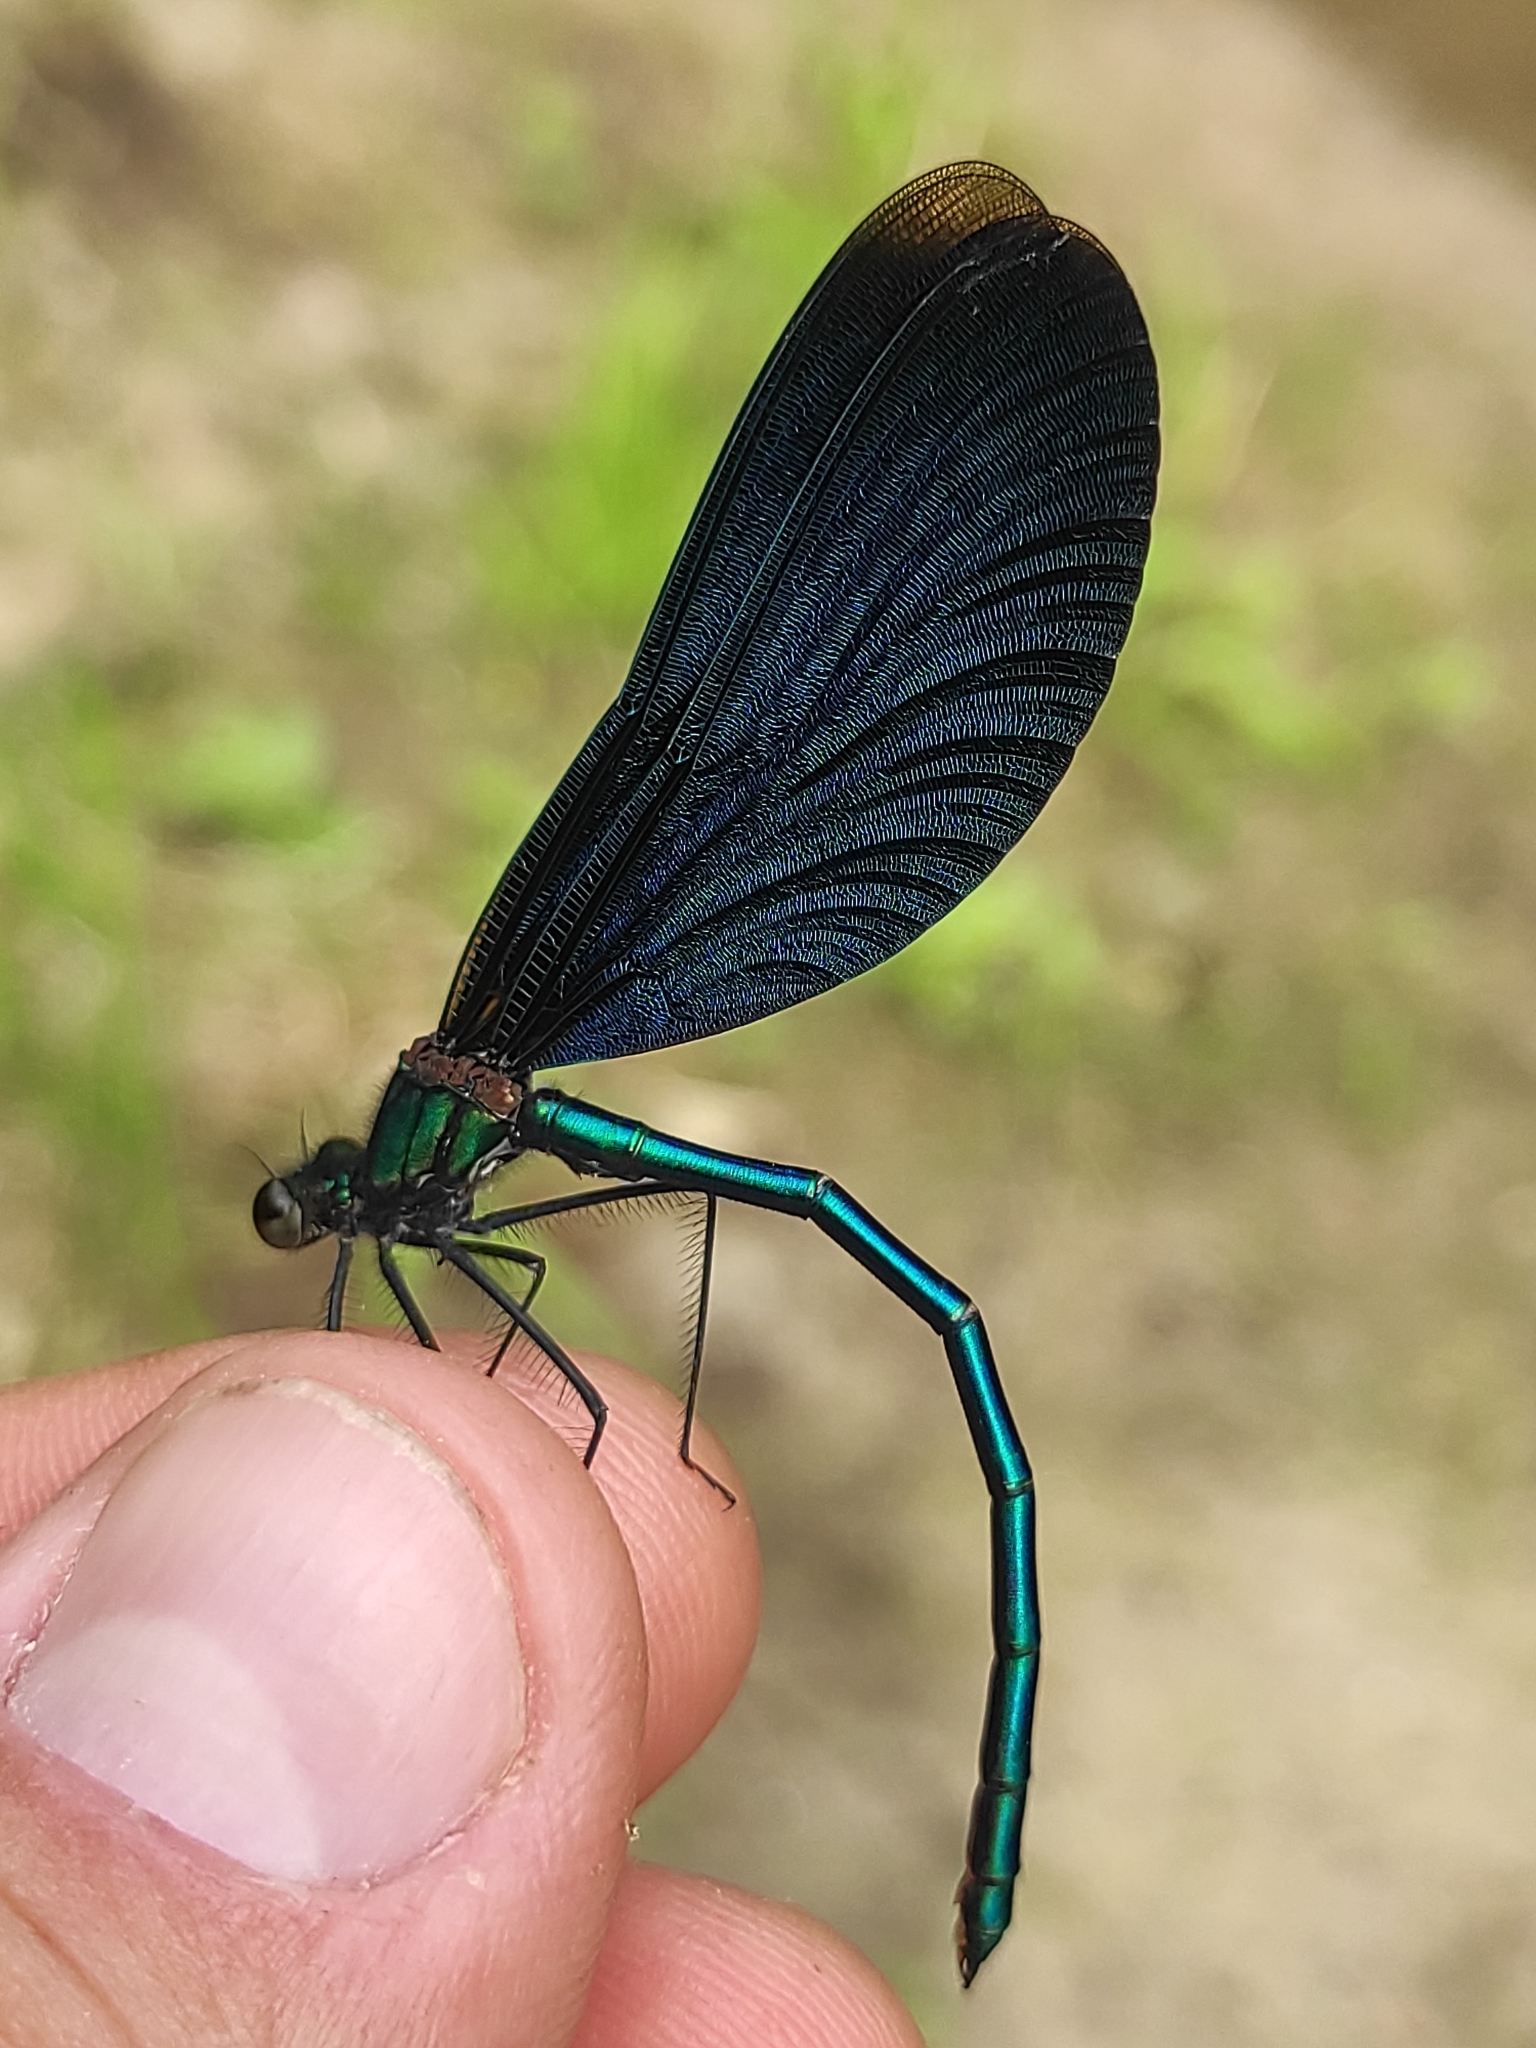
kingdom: Animalia
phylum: Arthropoda
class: Insecta
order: Odonata
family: Calopterygidae
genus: Calopteryx
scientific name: Calopteryx virgo
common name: Beautiful demoiselle
